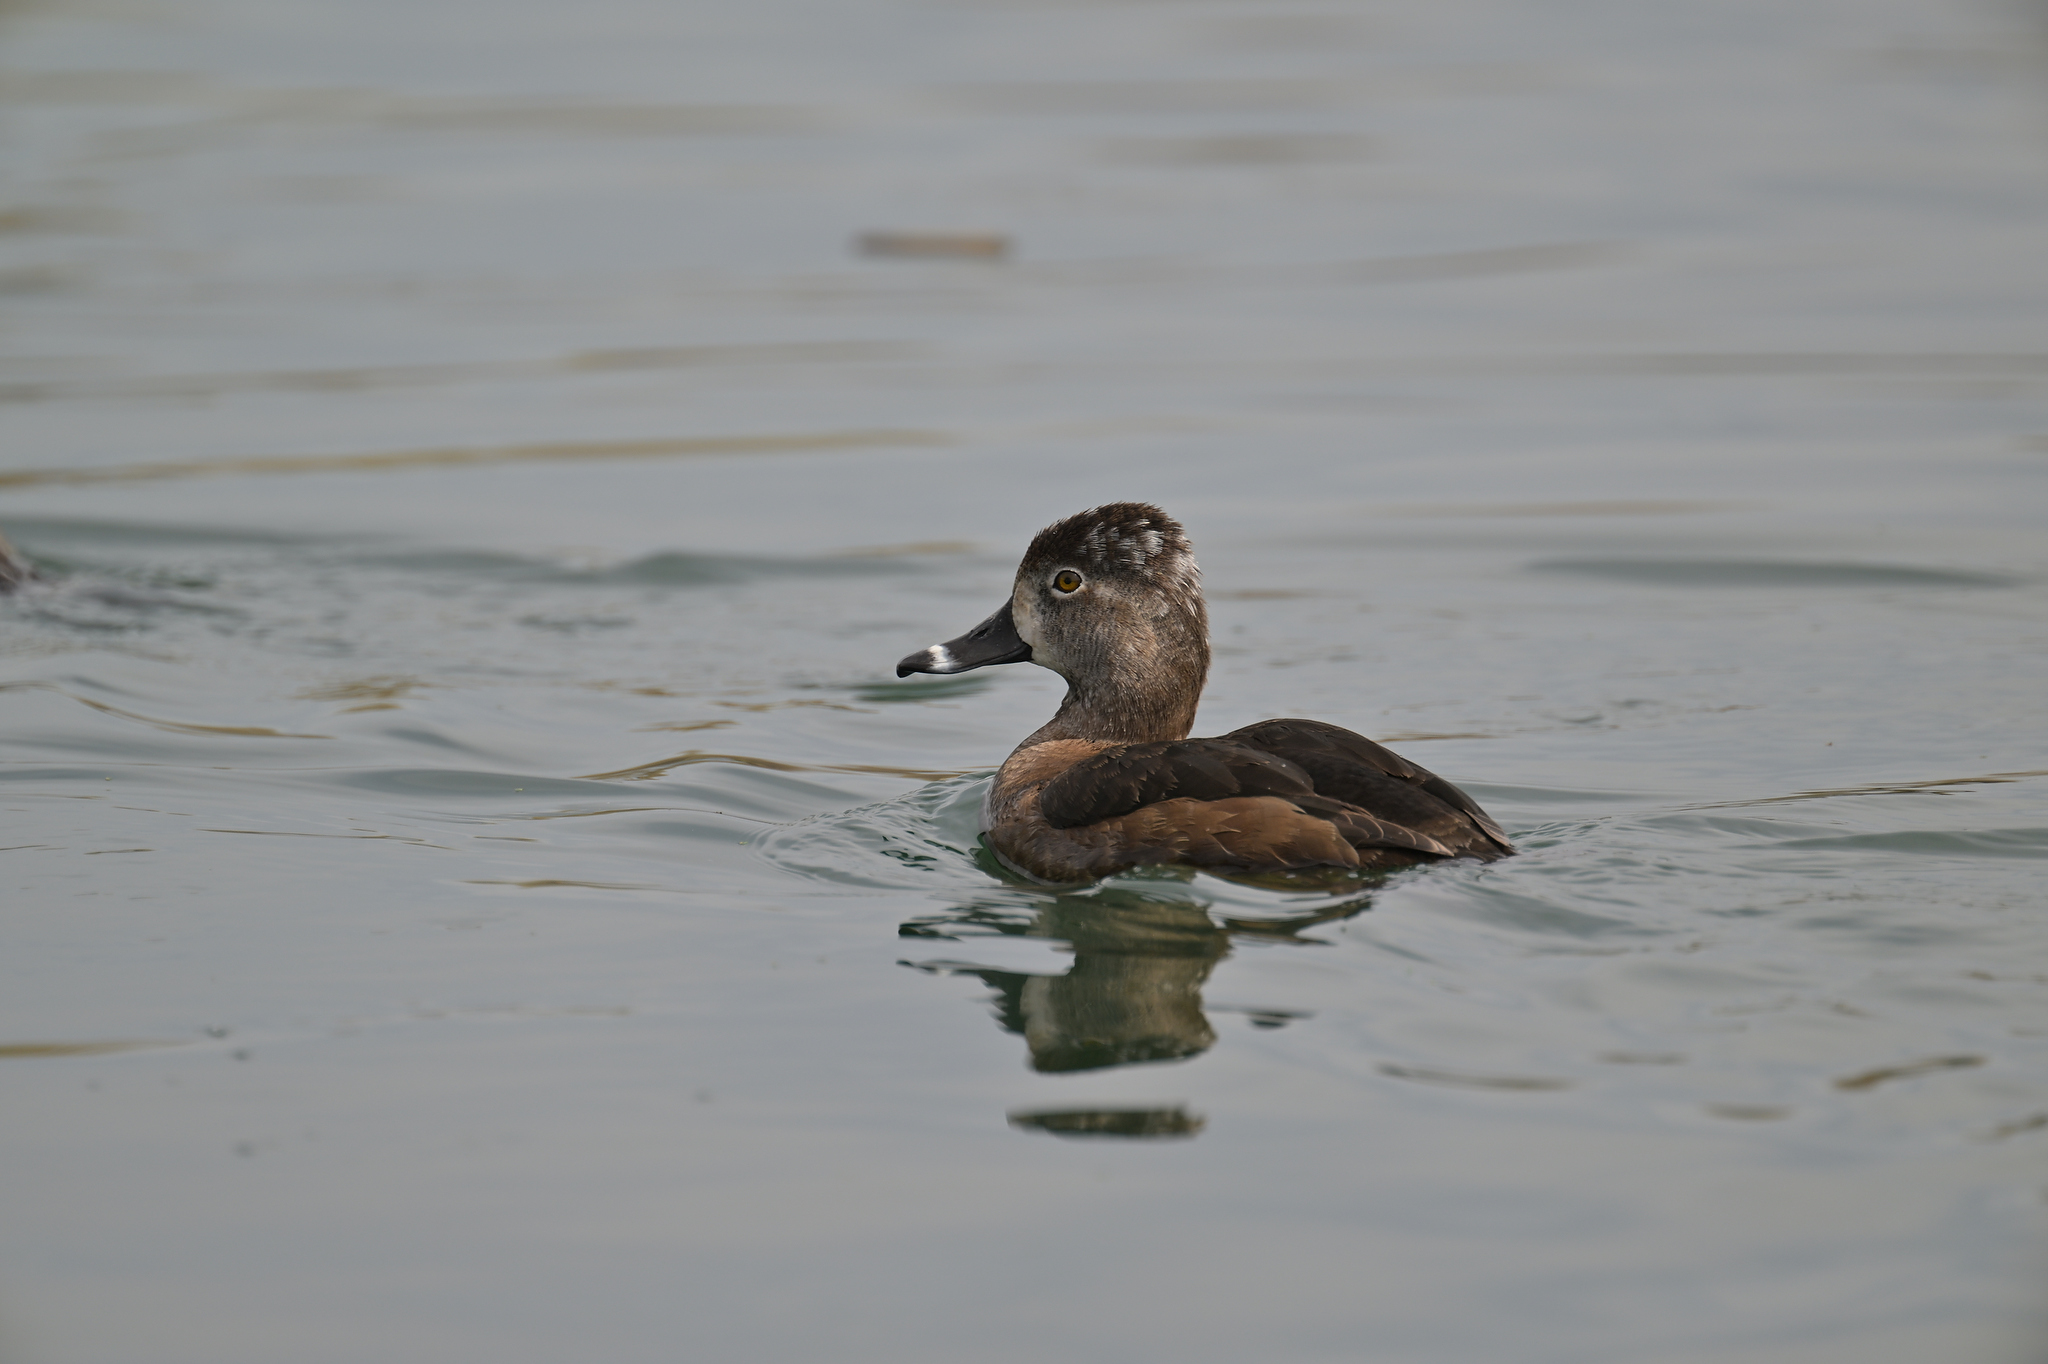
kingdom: Animalia
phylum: Chordata
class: Aves
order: Anseriformes
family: Anatidae
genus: Aythya
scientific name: Aythya collaris
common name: Ring-necked duck
